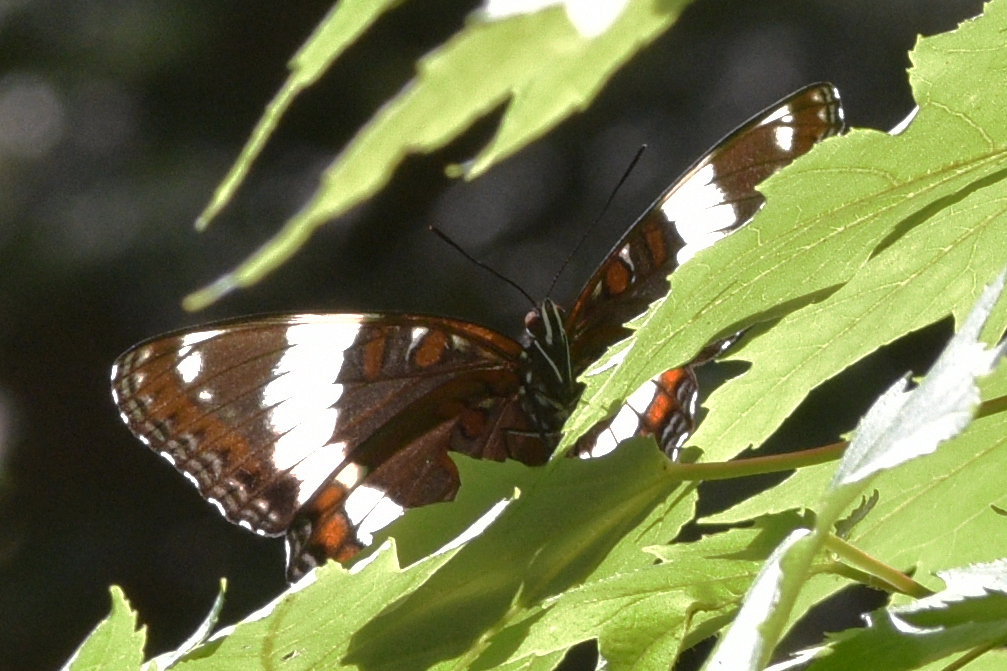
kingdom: Animalia
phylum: Arthropoda
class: Insecta
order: Lepidoptera
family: Nymphalidae
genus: Limenitis
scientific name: Limenitis arthemis
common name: Red-spotted admiral
